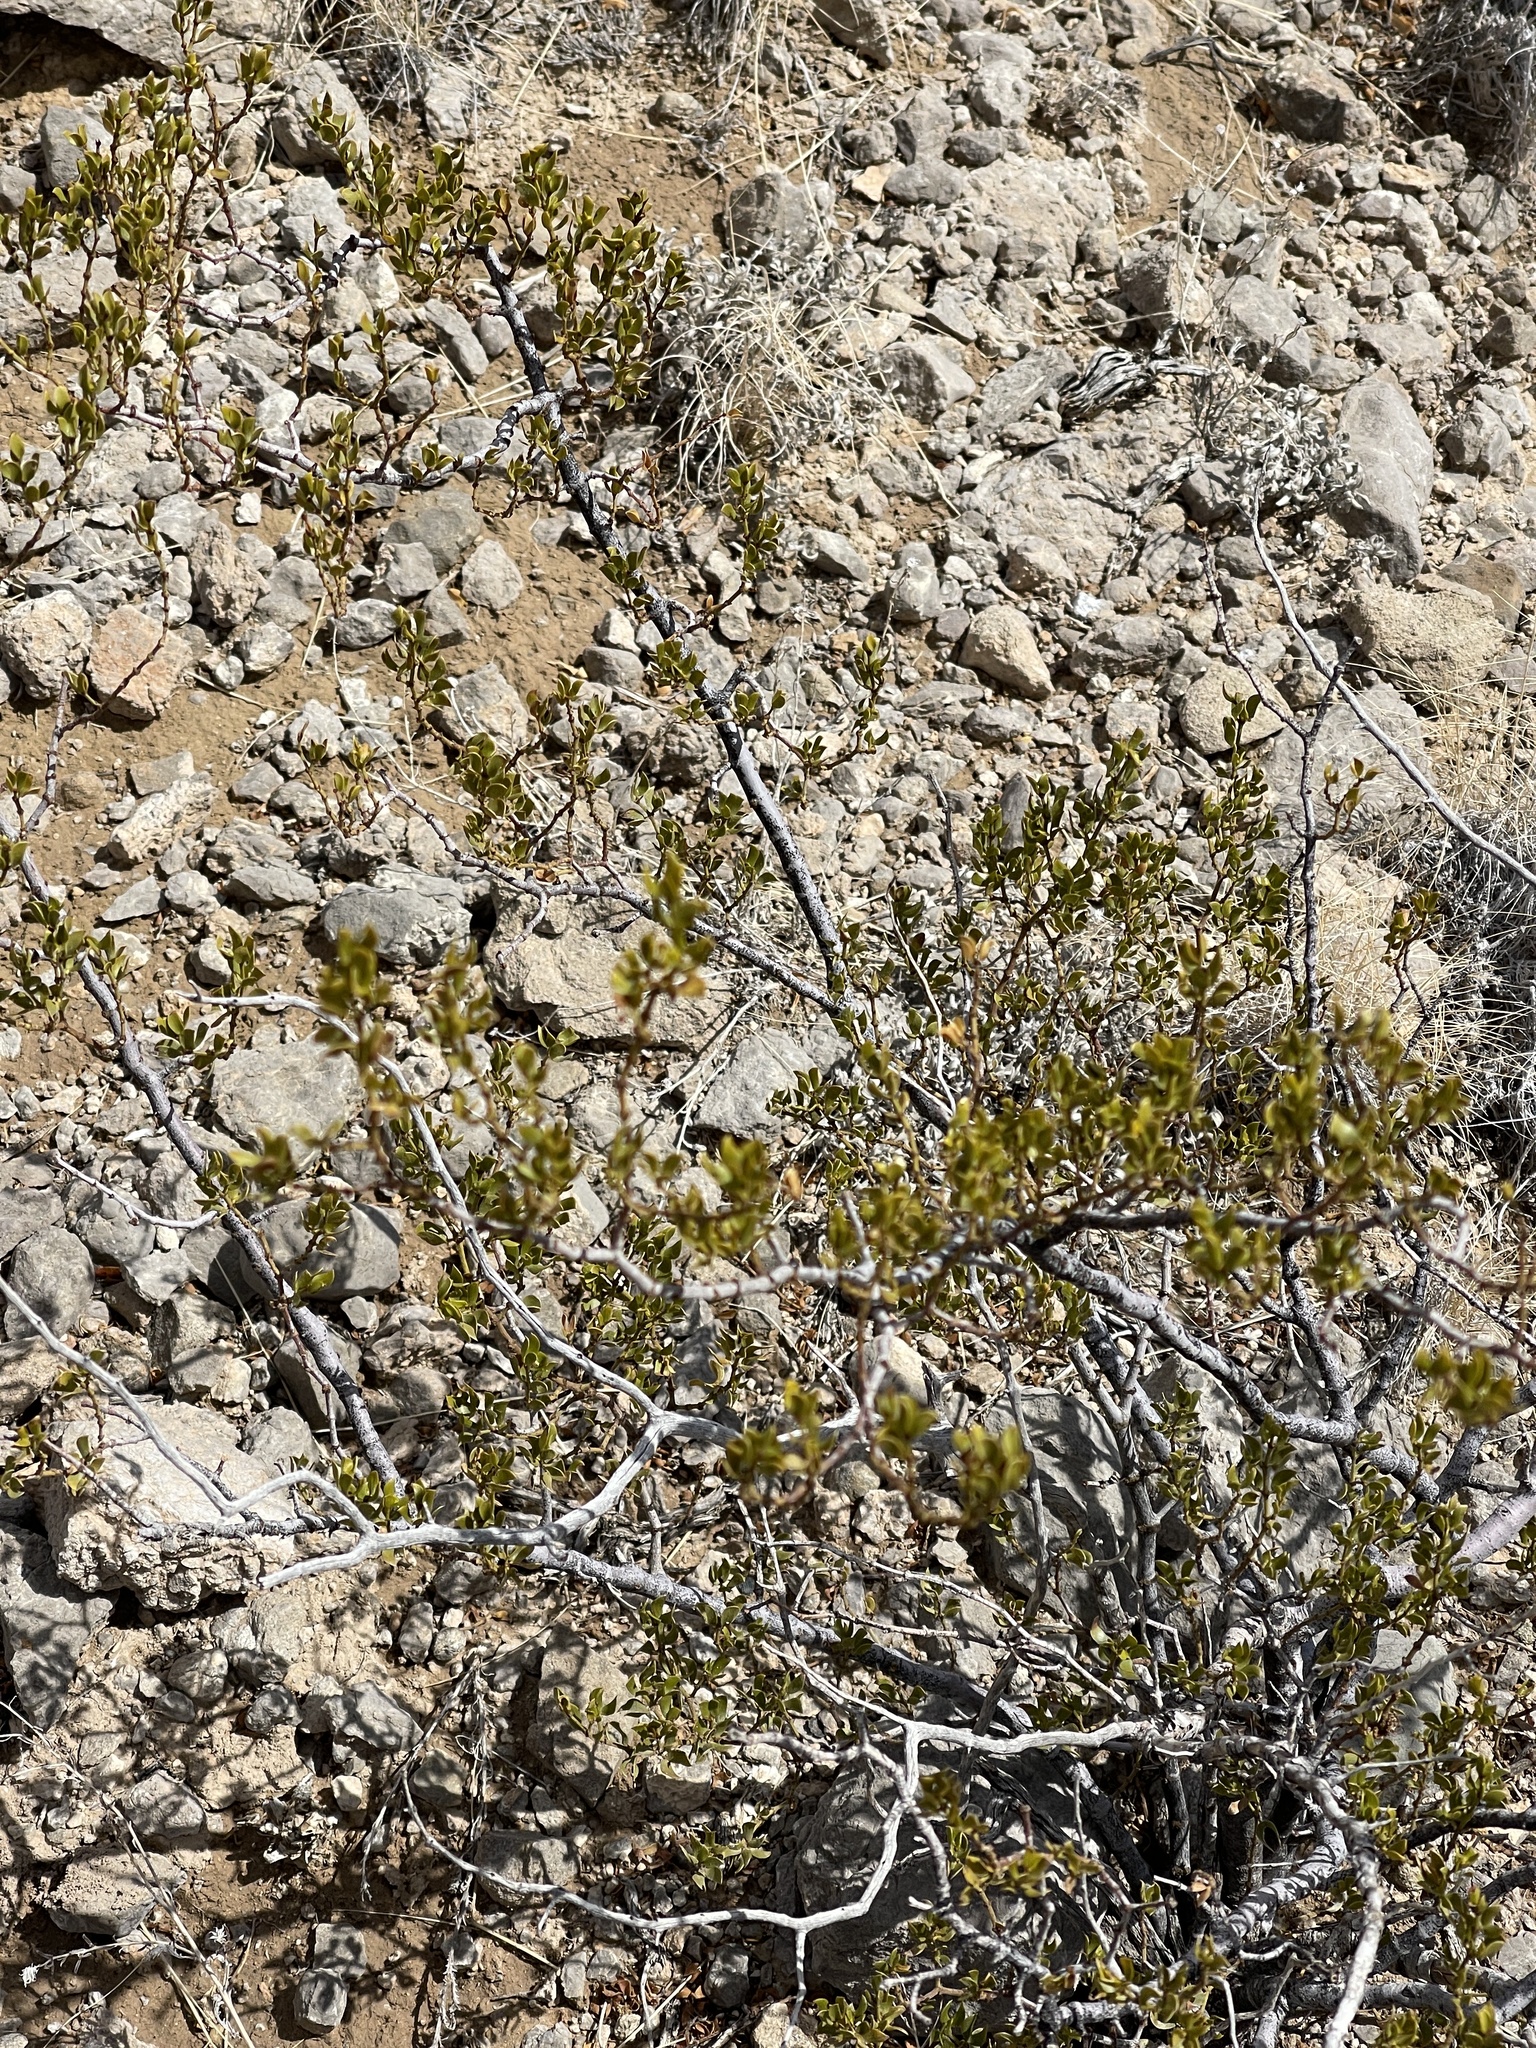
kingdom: Plantae
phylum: Tracheophyta
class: Magnoliopsida
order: Zygophyllales
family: Zygophyllaceae
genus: Larrea
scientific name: Larrea tridentata
